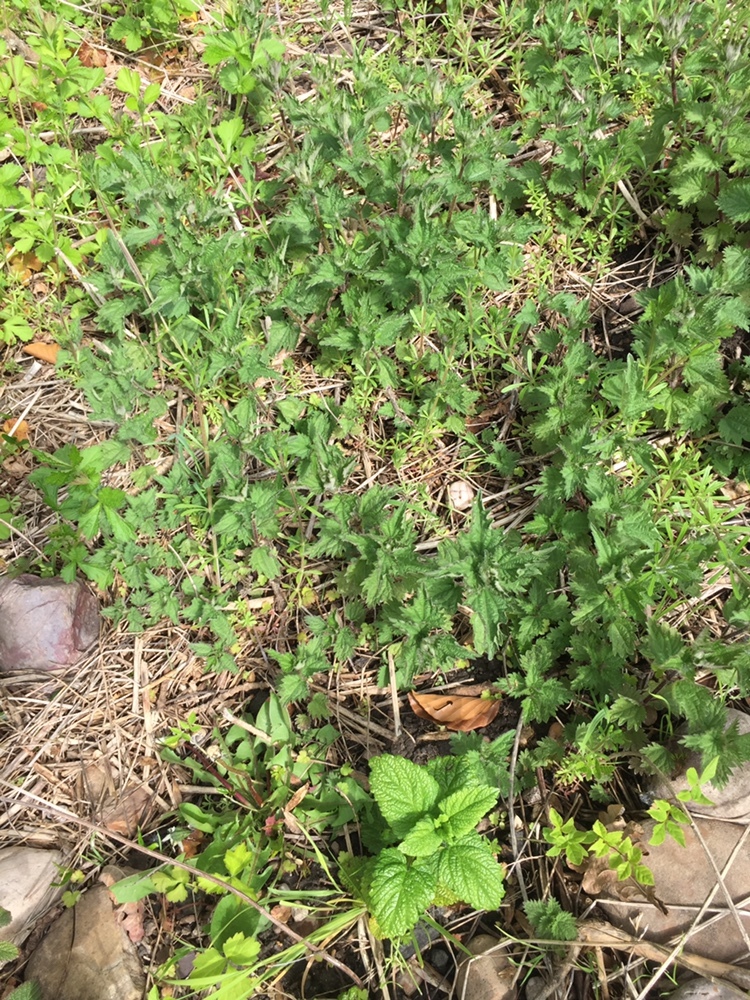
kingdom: Plantae
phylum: Tracheophyta
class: Magnoliopsida
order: Rosales
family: Urticaceae
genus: Urtica
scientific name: Urtica dioica
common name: Common nettle
